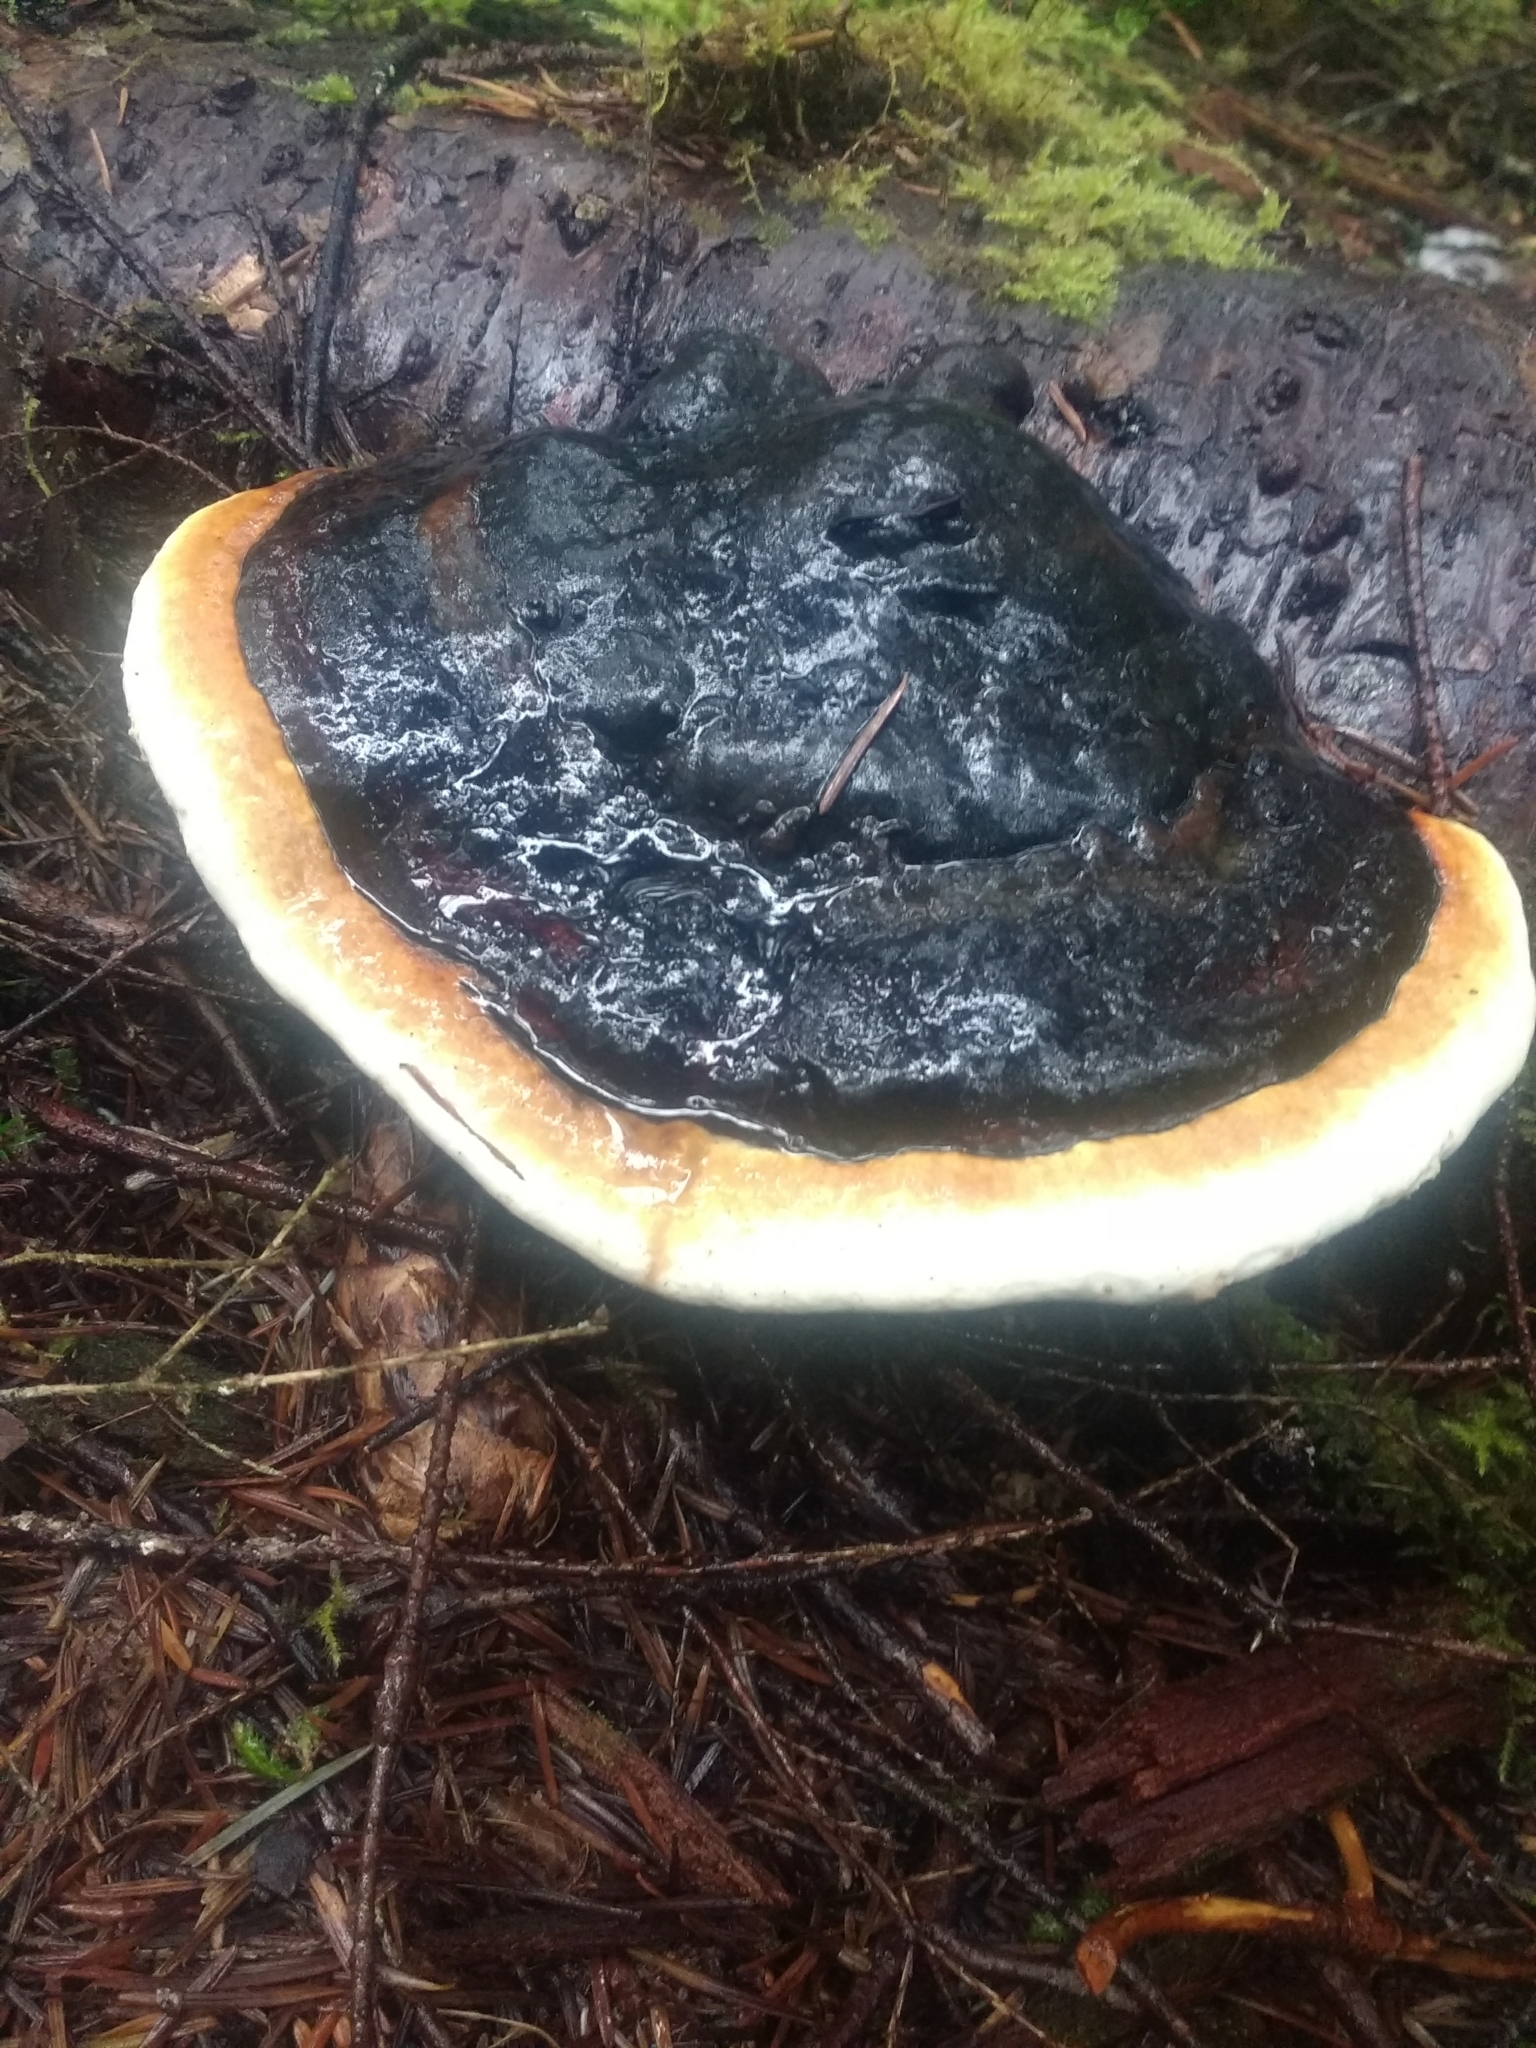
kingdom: Fungi
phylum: Basidiomycota
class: Agaricomycetes
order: Polyporales
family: Fomitopsidaceae
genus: Fomitopsis
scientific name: Fomitopsis mounceae
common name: Northern red belt
